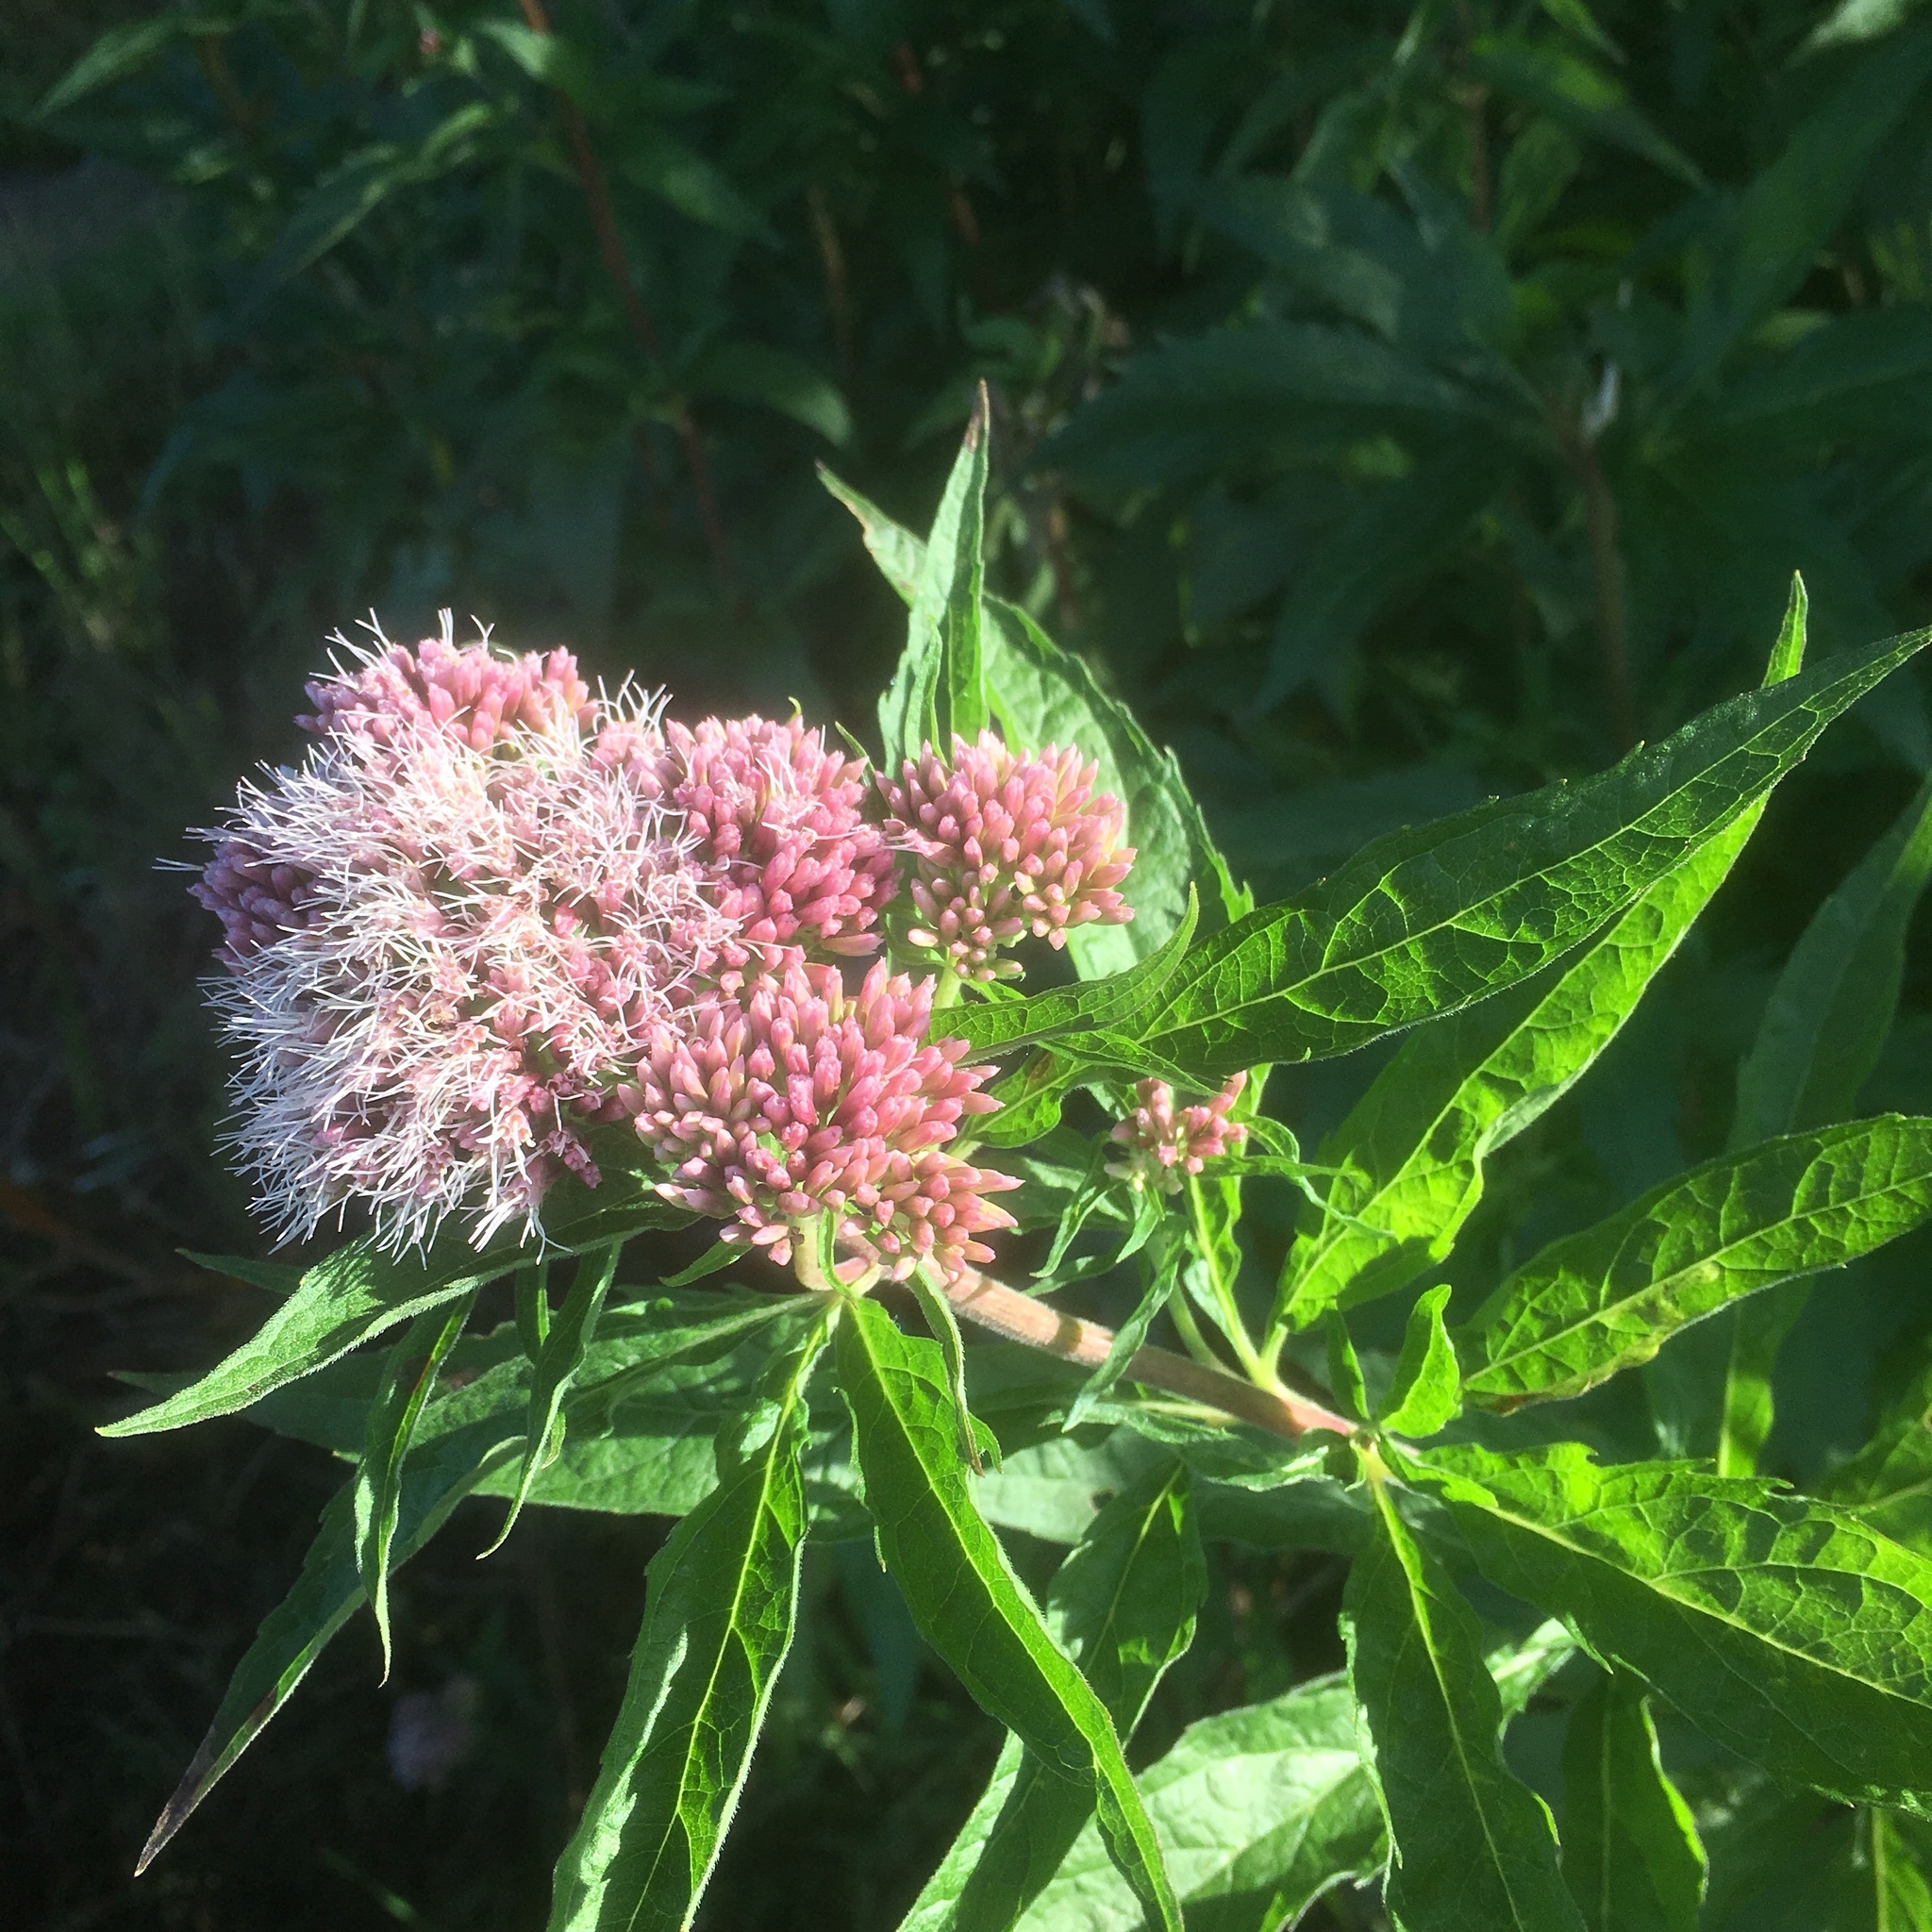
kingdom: Plantae
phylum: Tracheophyta
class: Magnoliopsida
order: Asterales
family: Asteraceae
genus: Eupatorium
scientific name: Eupatorium cannabinum
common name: Hemp-agrimony
